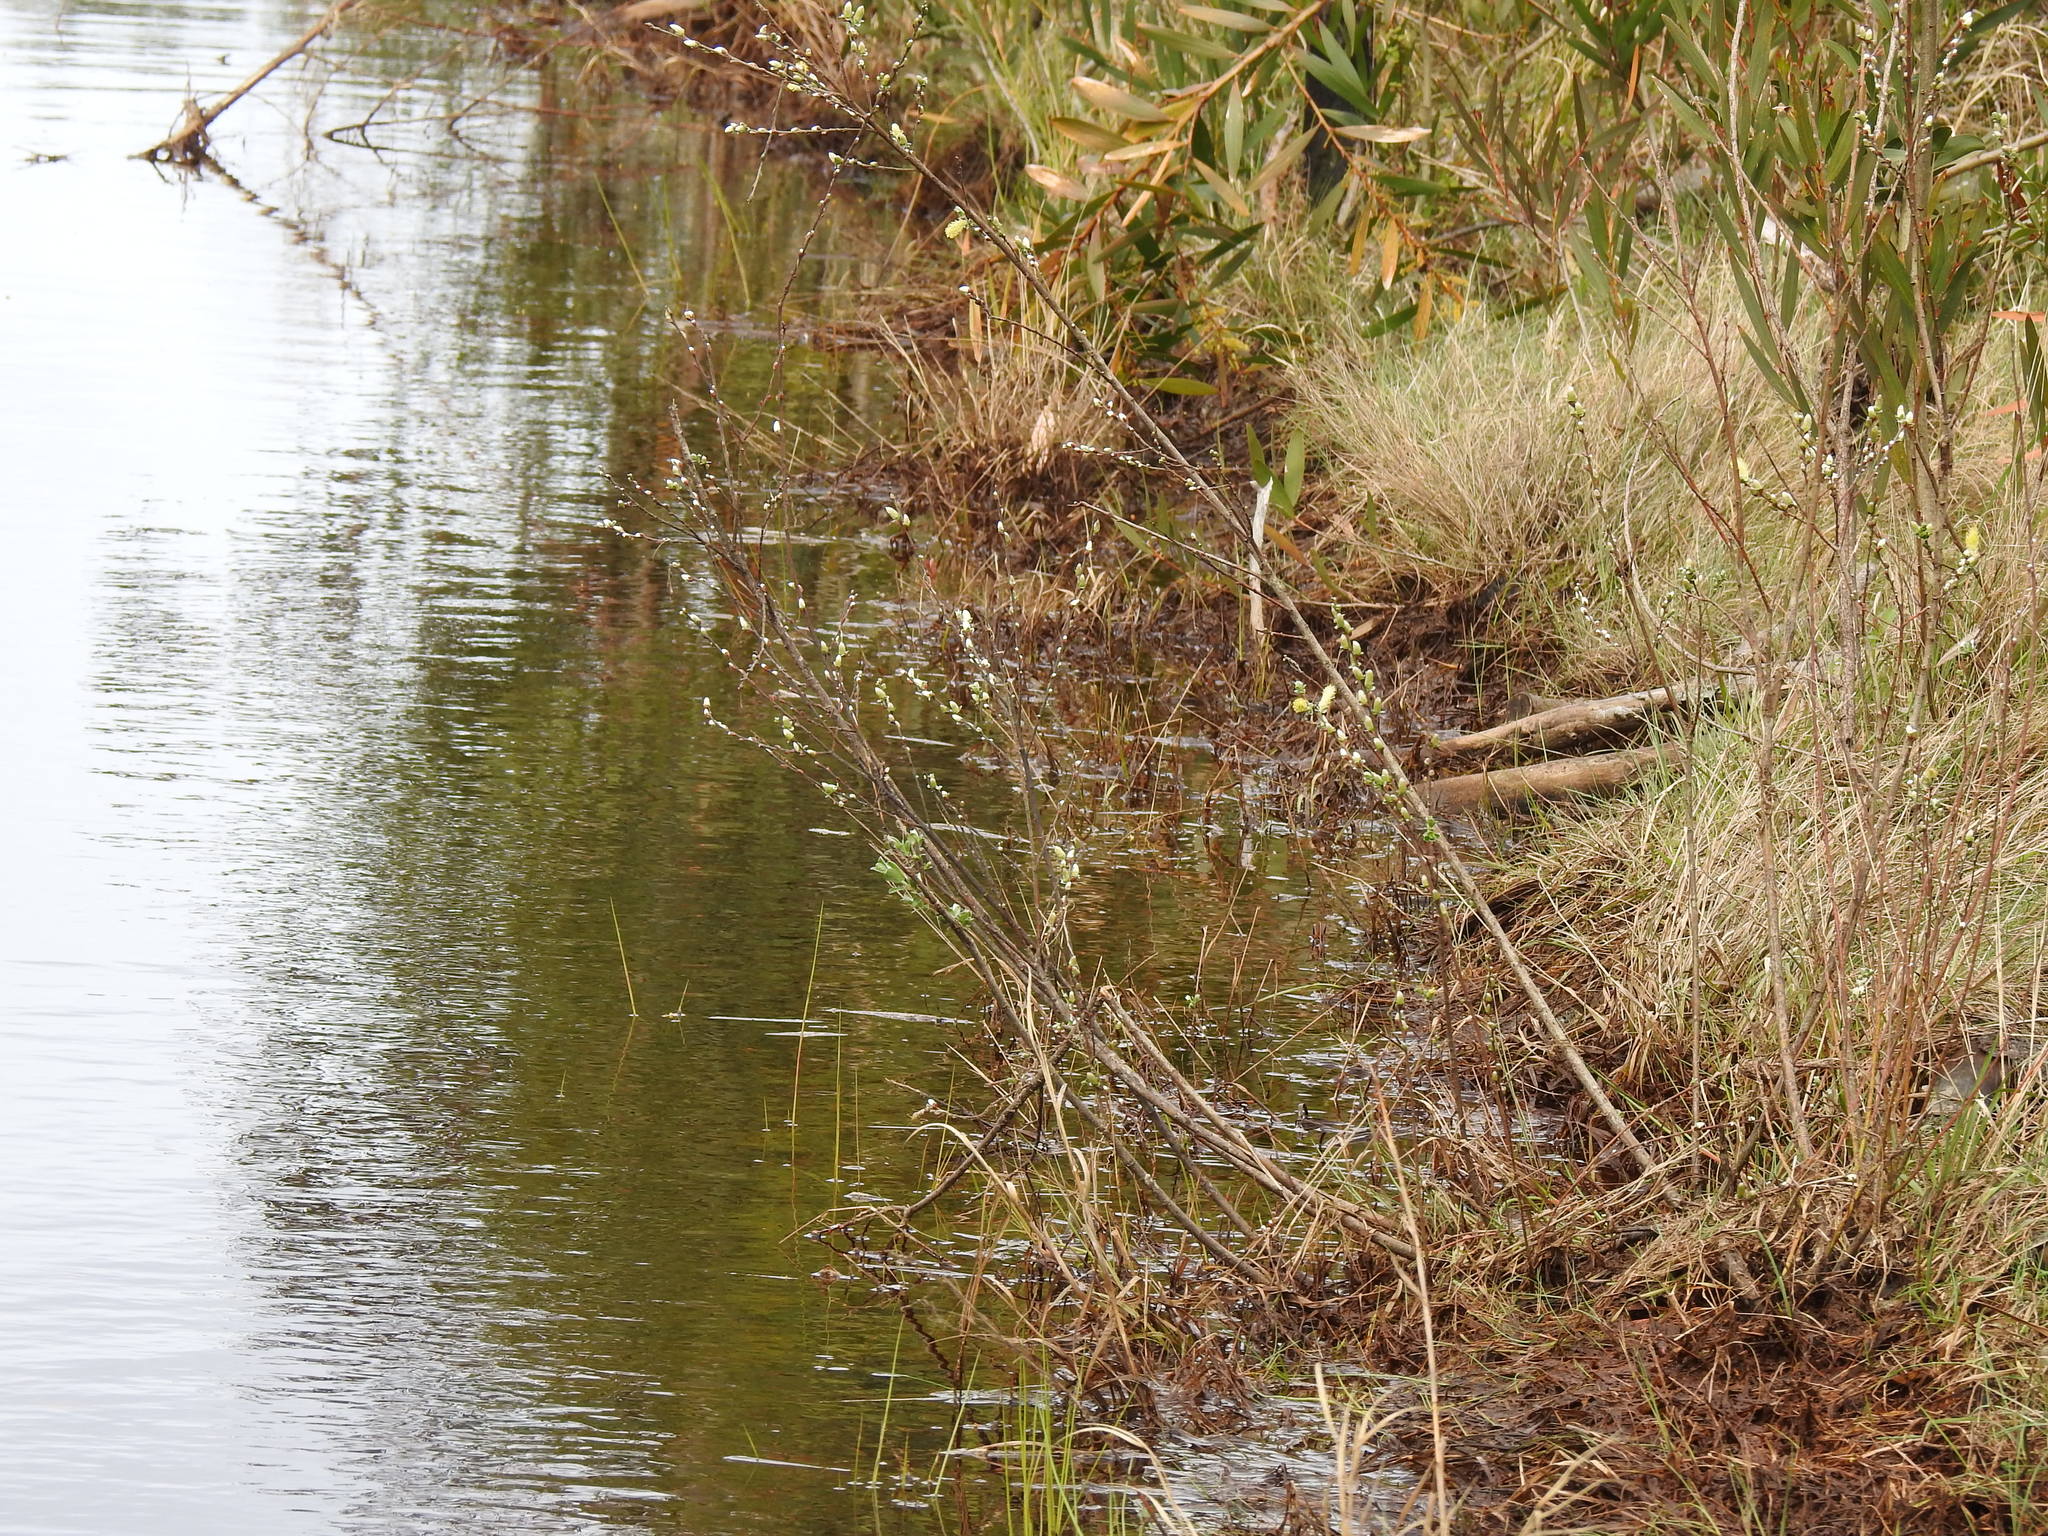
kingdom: Plantae
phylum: Tracheophyta
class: Magnoliopsida
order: Malpighiales
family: Salicaceae
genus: Salix
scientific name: Salix repens
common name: Creeping willow
